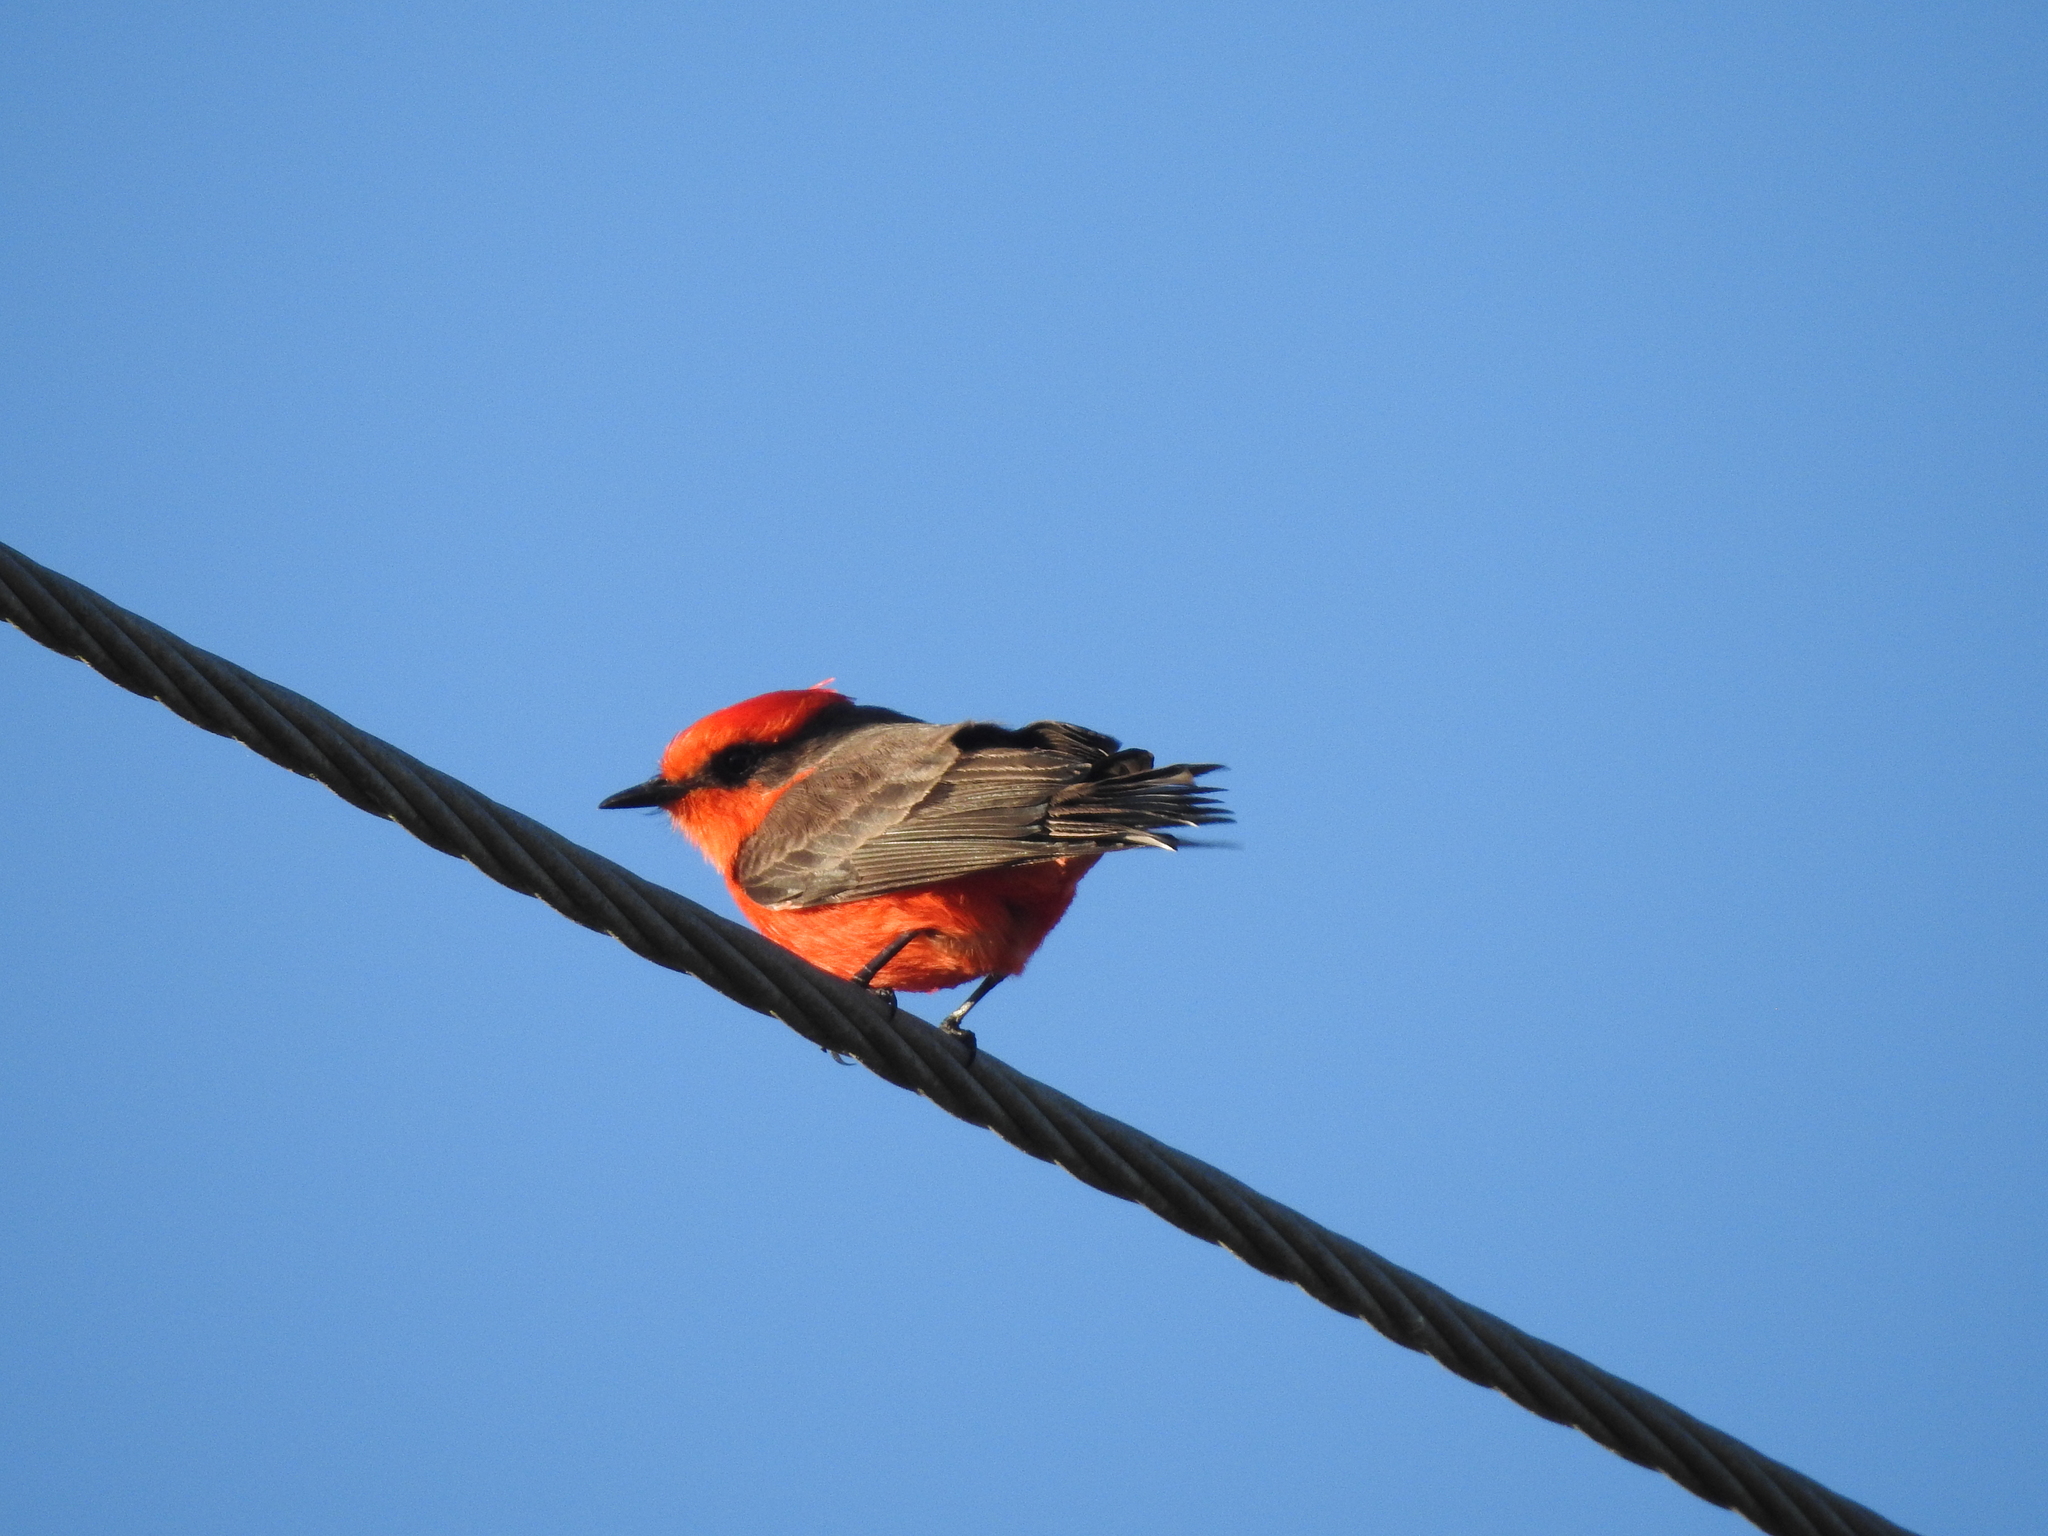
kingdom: Animalia
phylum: Chordata
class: Aves
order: Passeriformes
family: Tyrannidae
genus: Pyrocephalus
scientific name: Pyrocephalus rubinus
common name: Vermilion flycatcher
